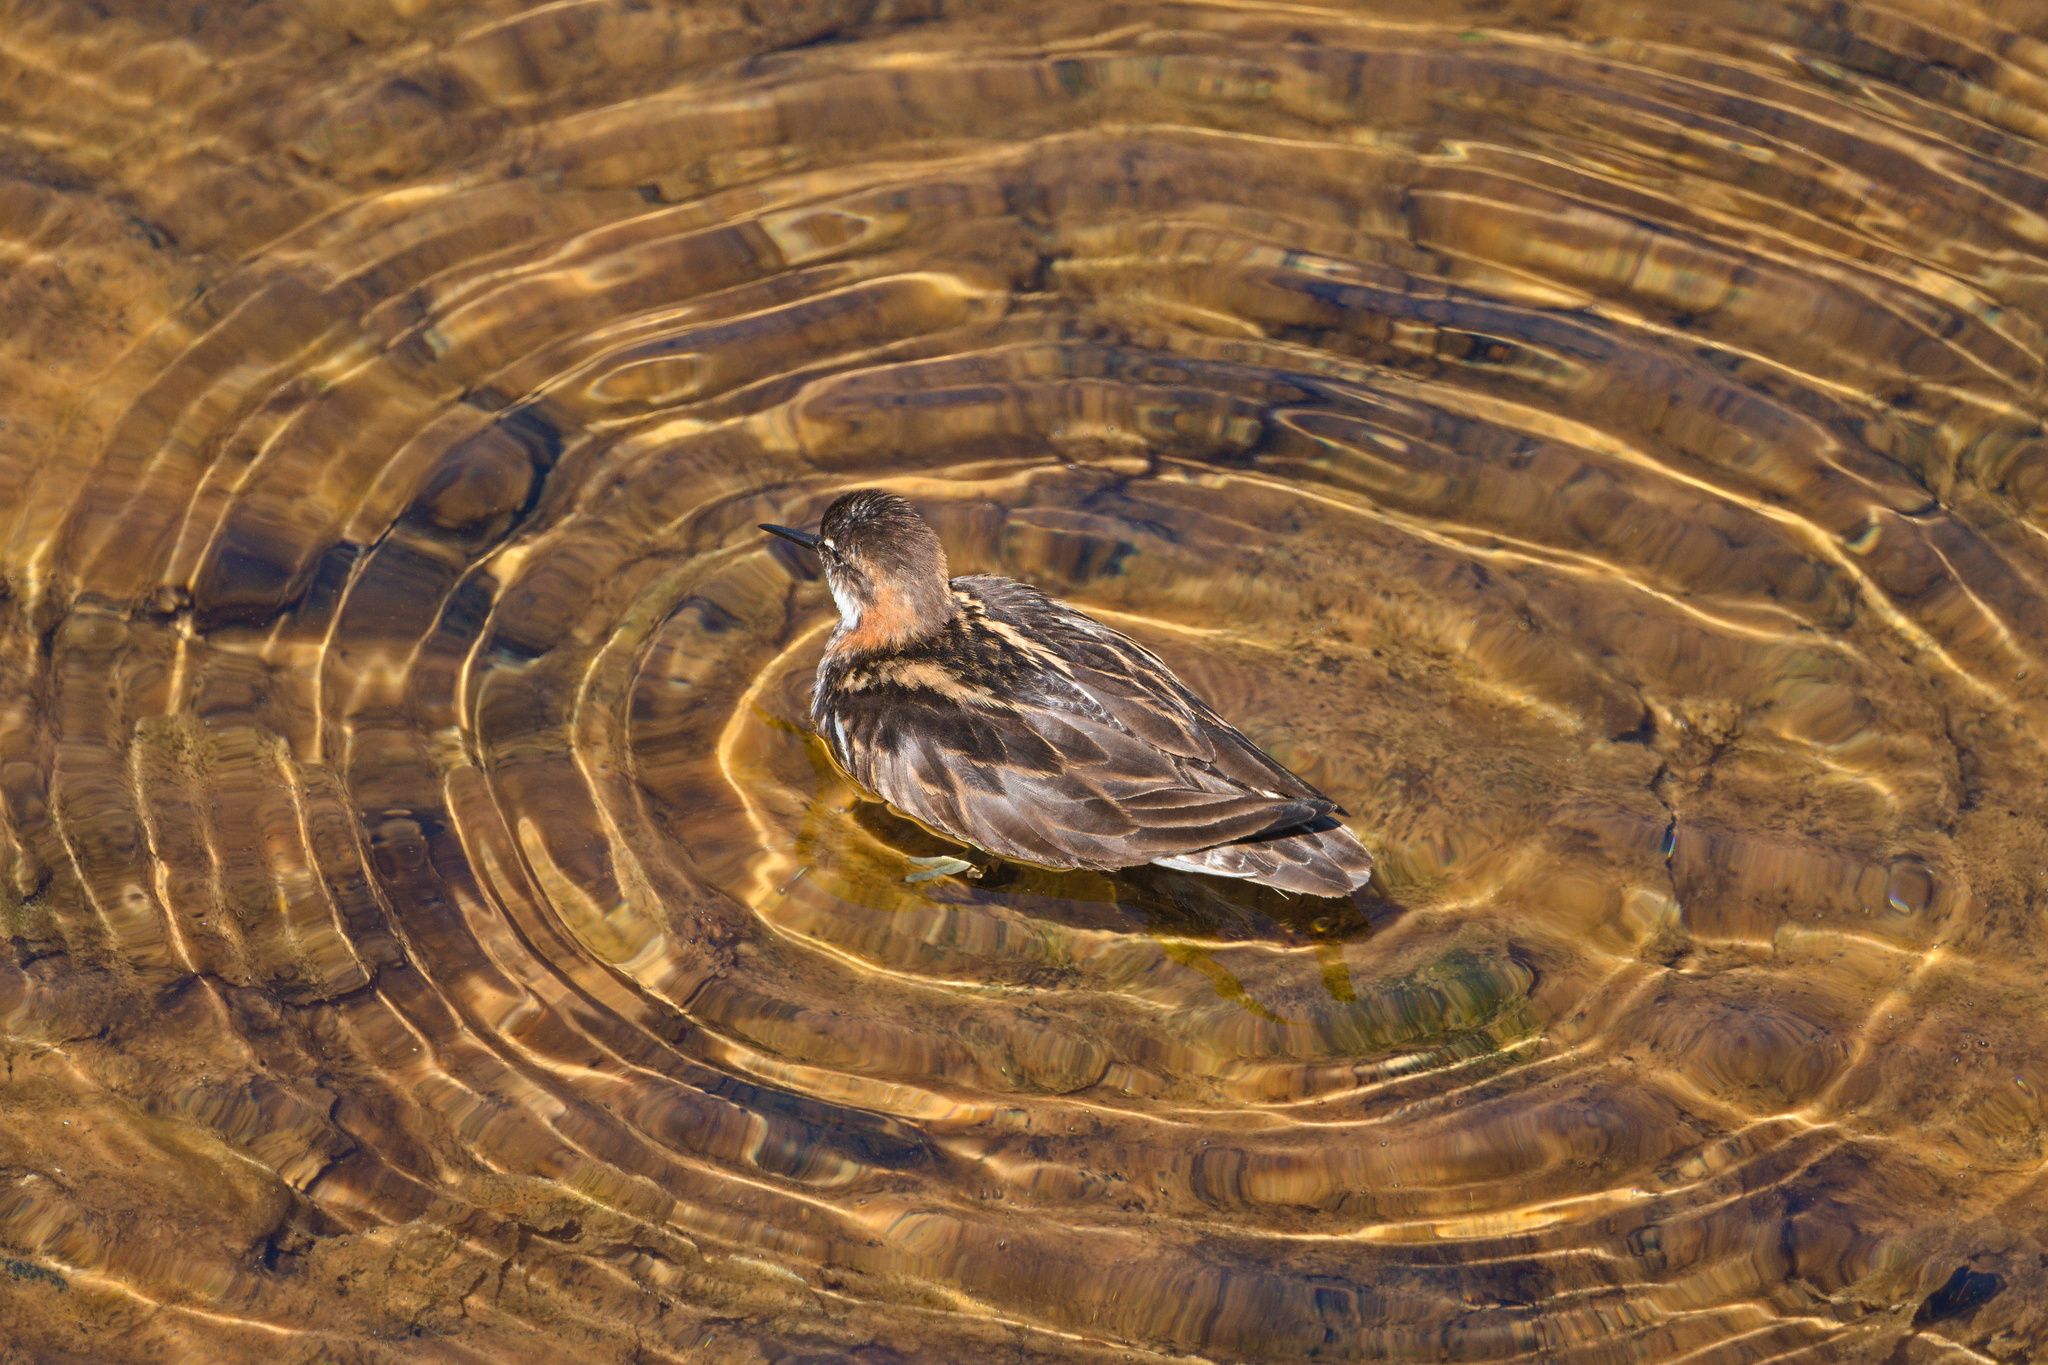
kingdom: Animalia
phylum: Chordata
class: Aves
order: Charadriiformes
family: Scolopacidae
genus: Phalaropus
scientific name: Phalaropus lobatus
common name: Red-necked phalarope
